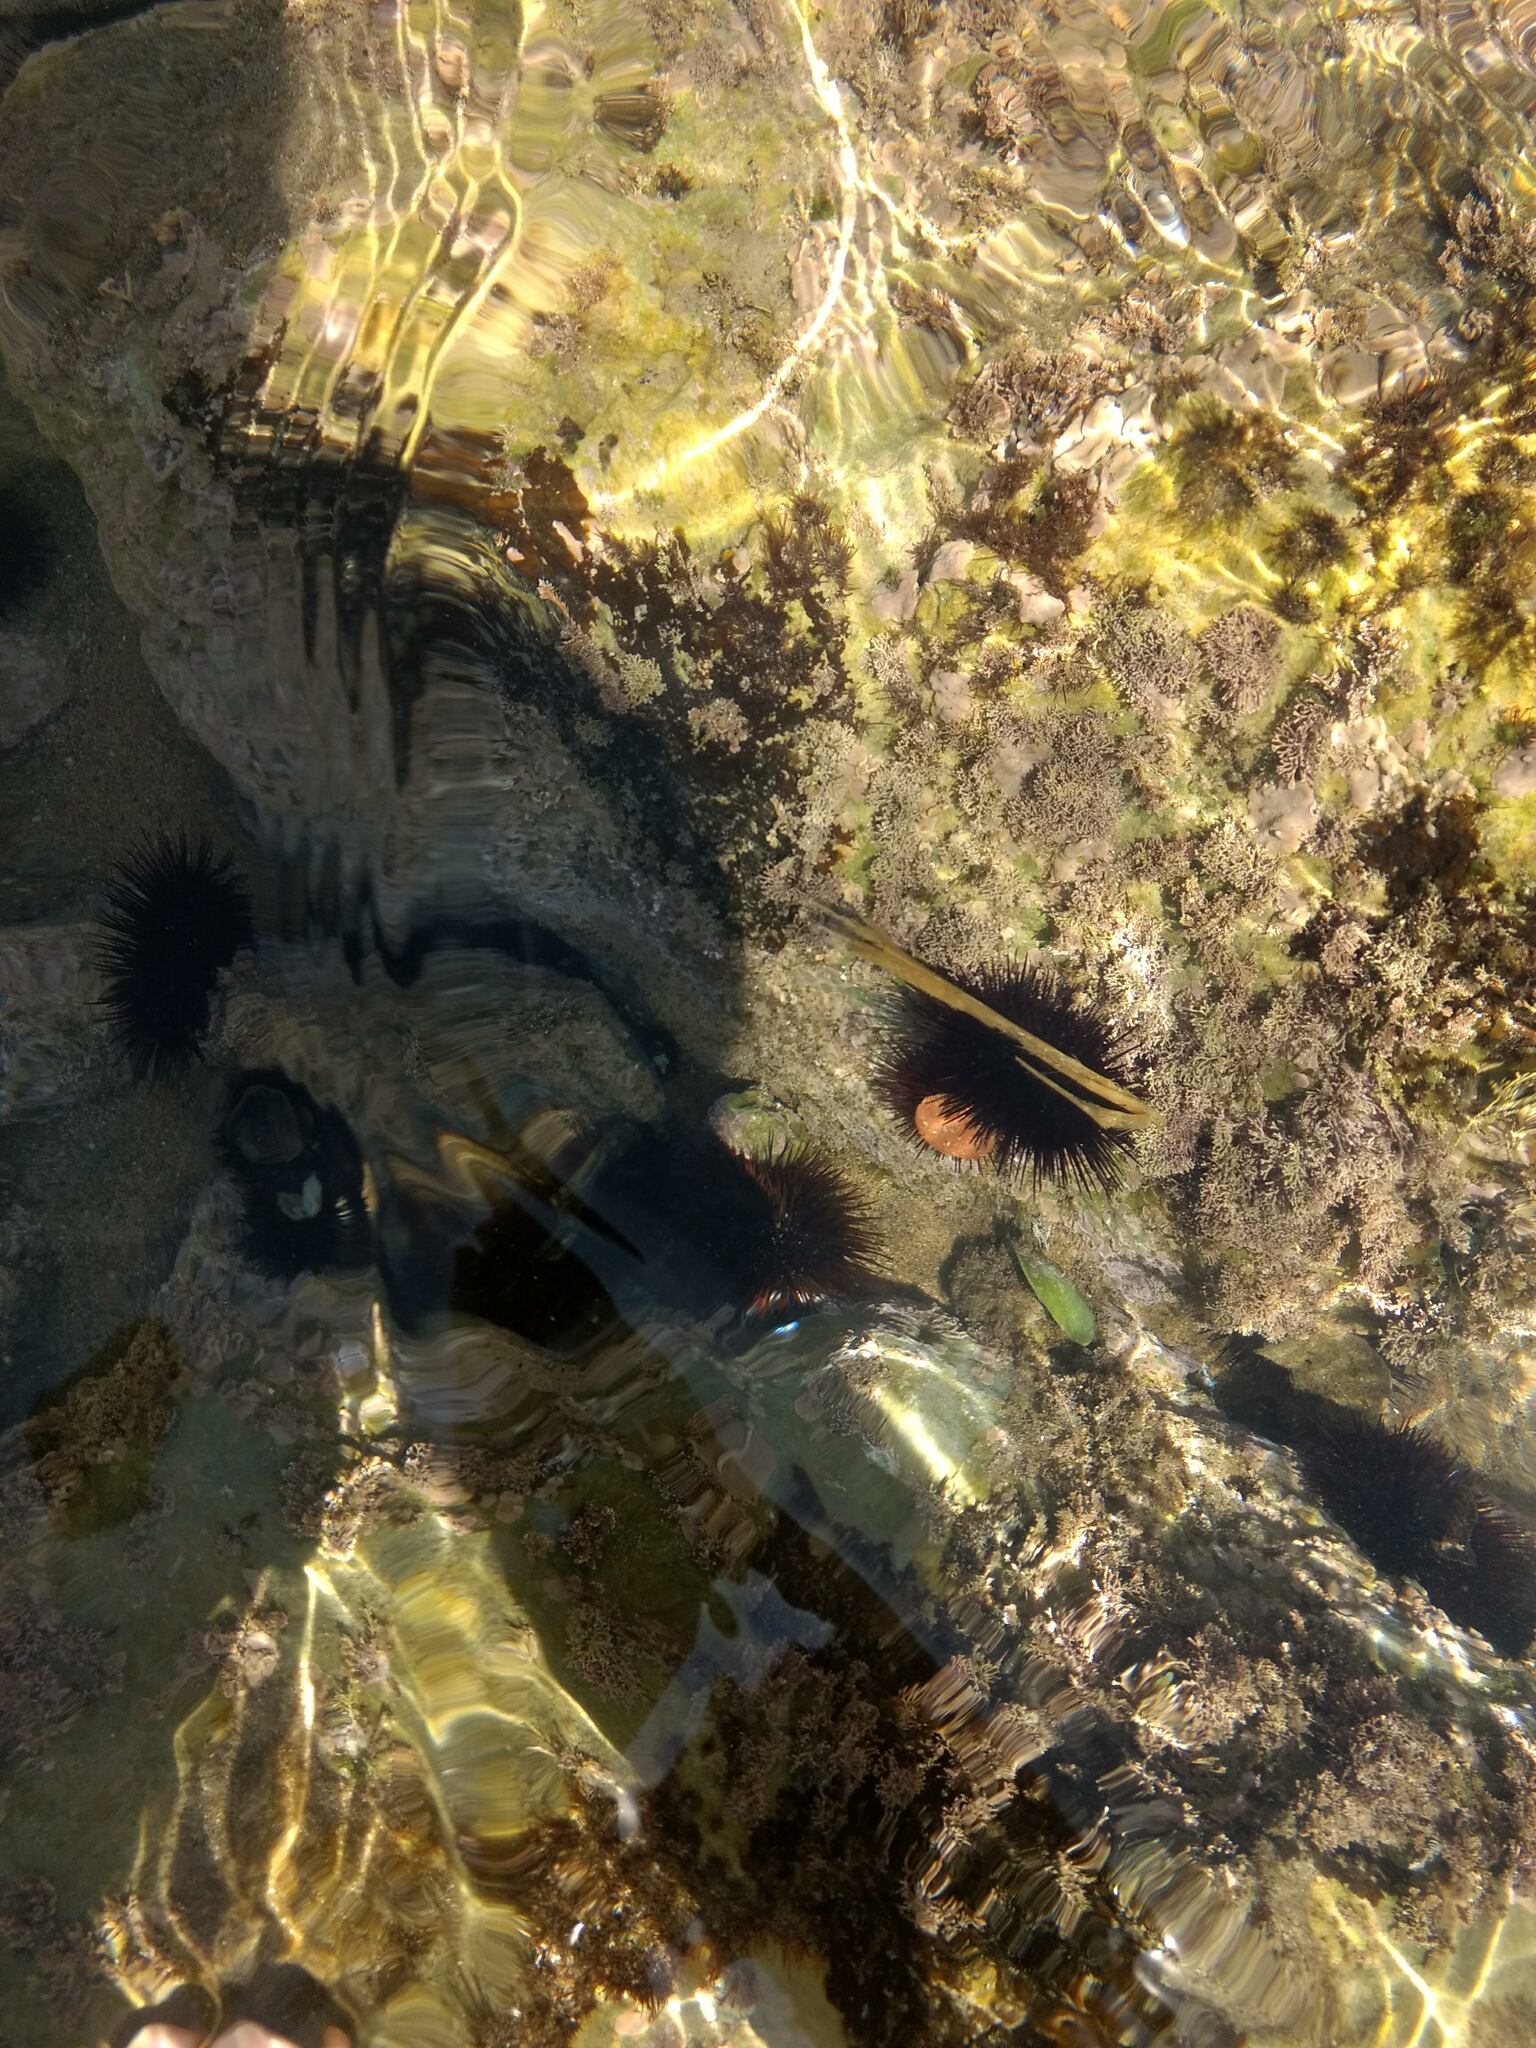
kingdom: Animalia
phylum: Echinodermata
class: Echinoidea
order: Camarodonta
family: Parechinidae
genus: Paracentrotus
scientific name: Paracentrotus lividus
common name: Purple sea urchin
